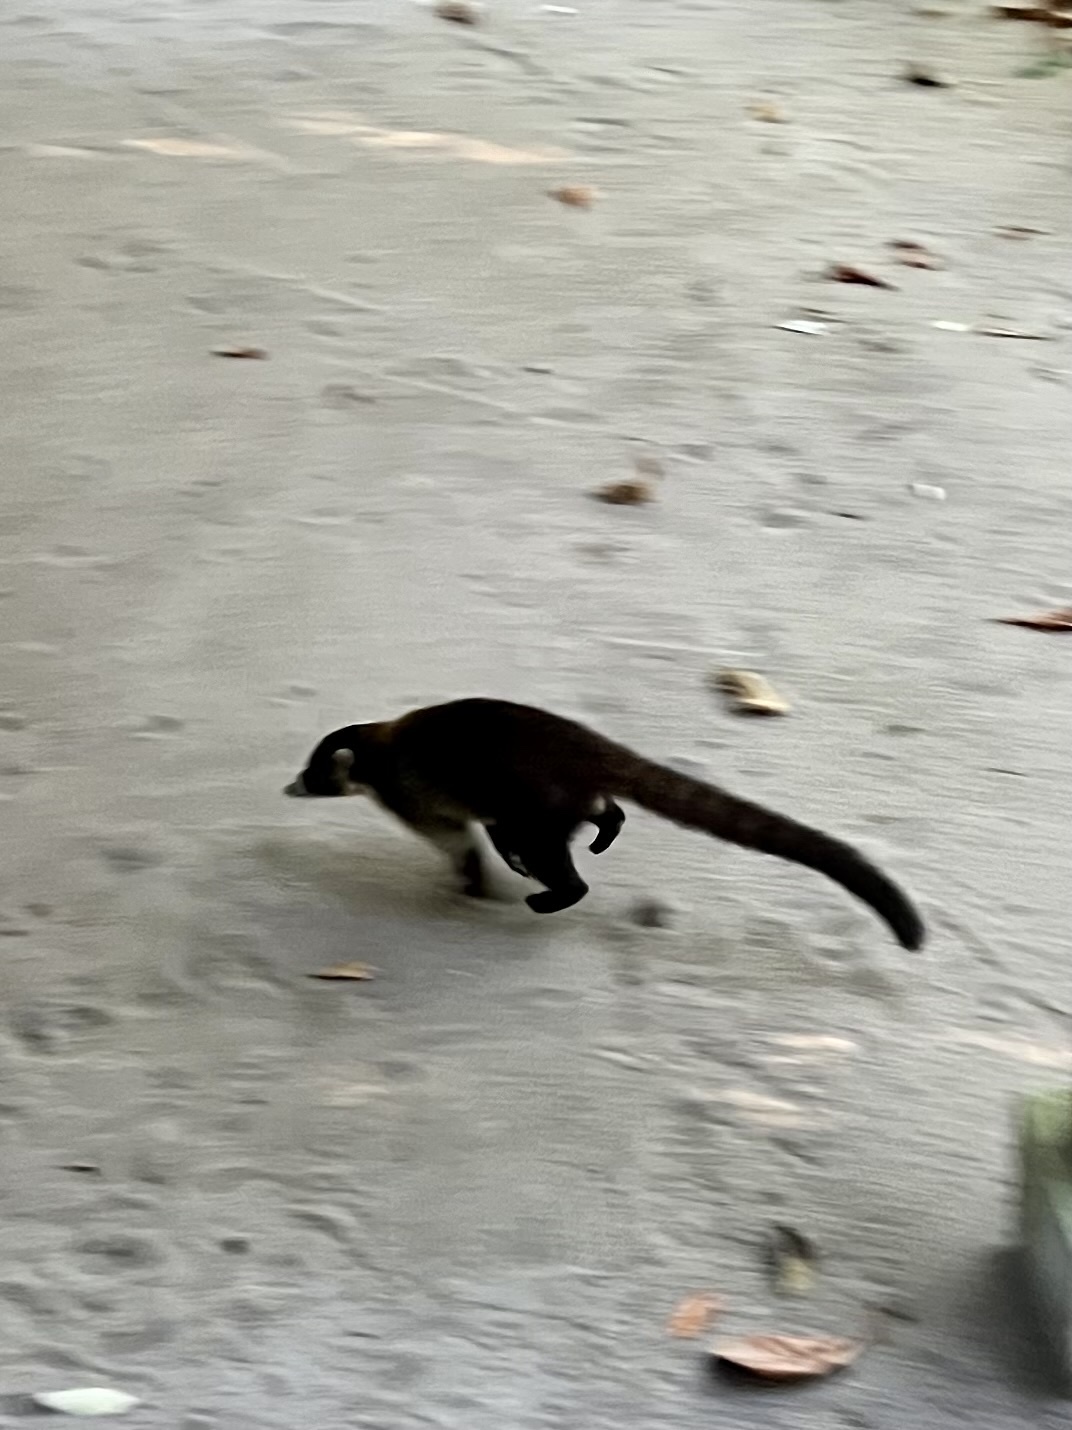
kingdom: Animalia
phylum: Chordata
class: Mammalia
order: Carnivora
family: Procyonidae
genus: Nasua
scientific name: Nasua narica
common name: White-nosed coati
